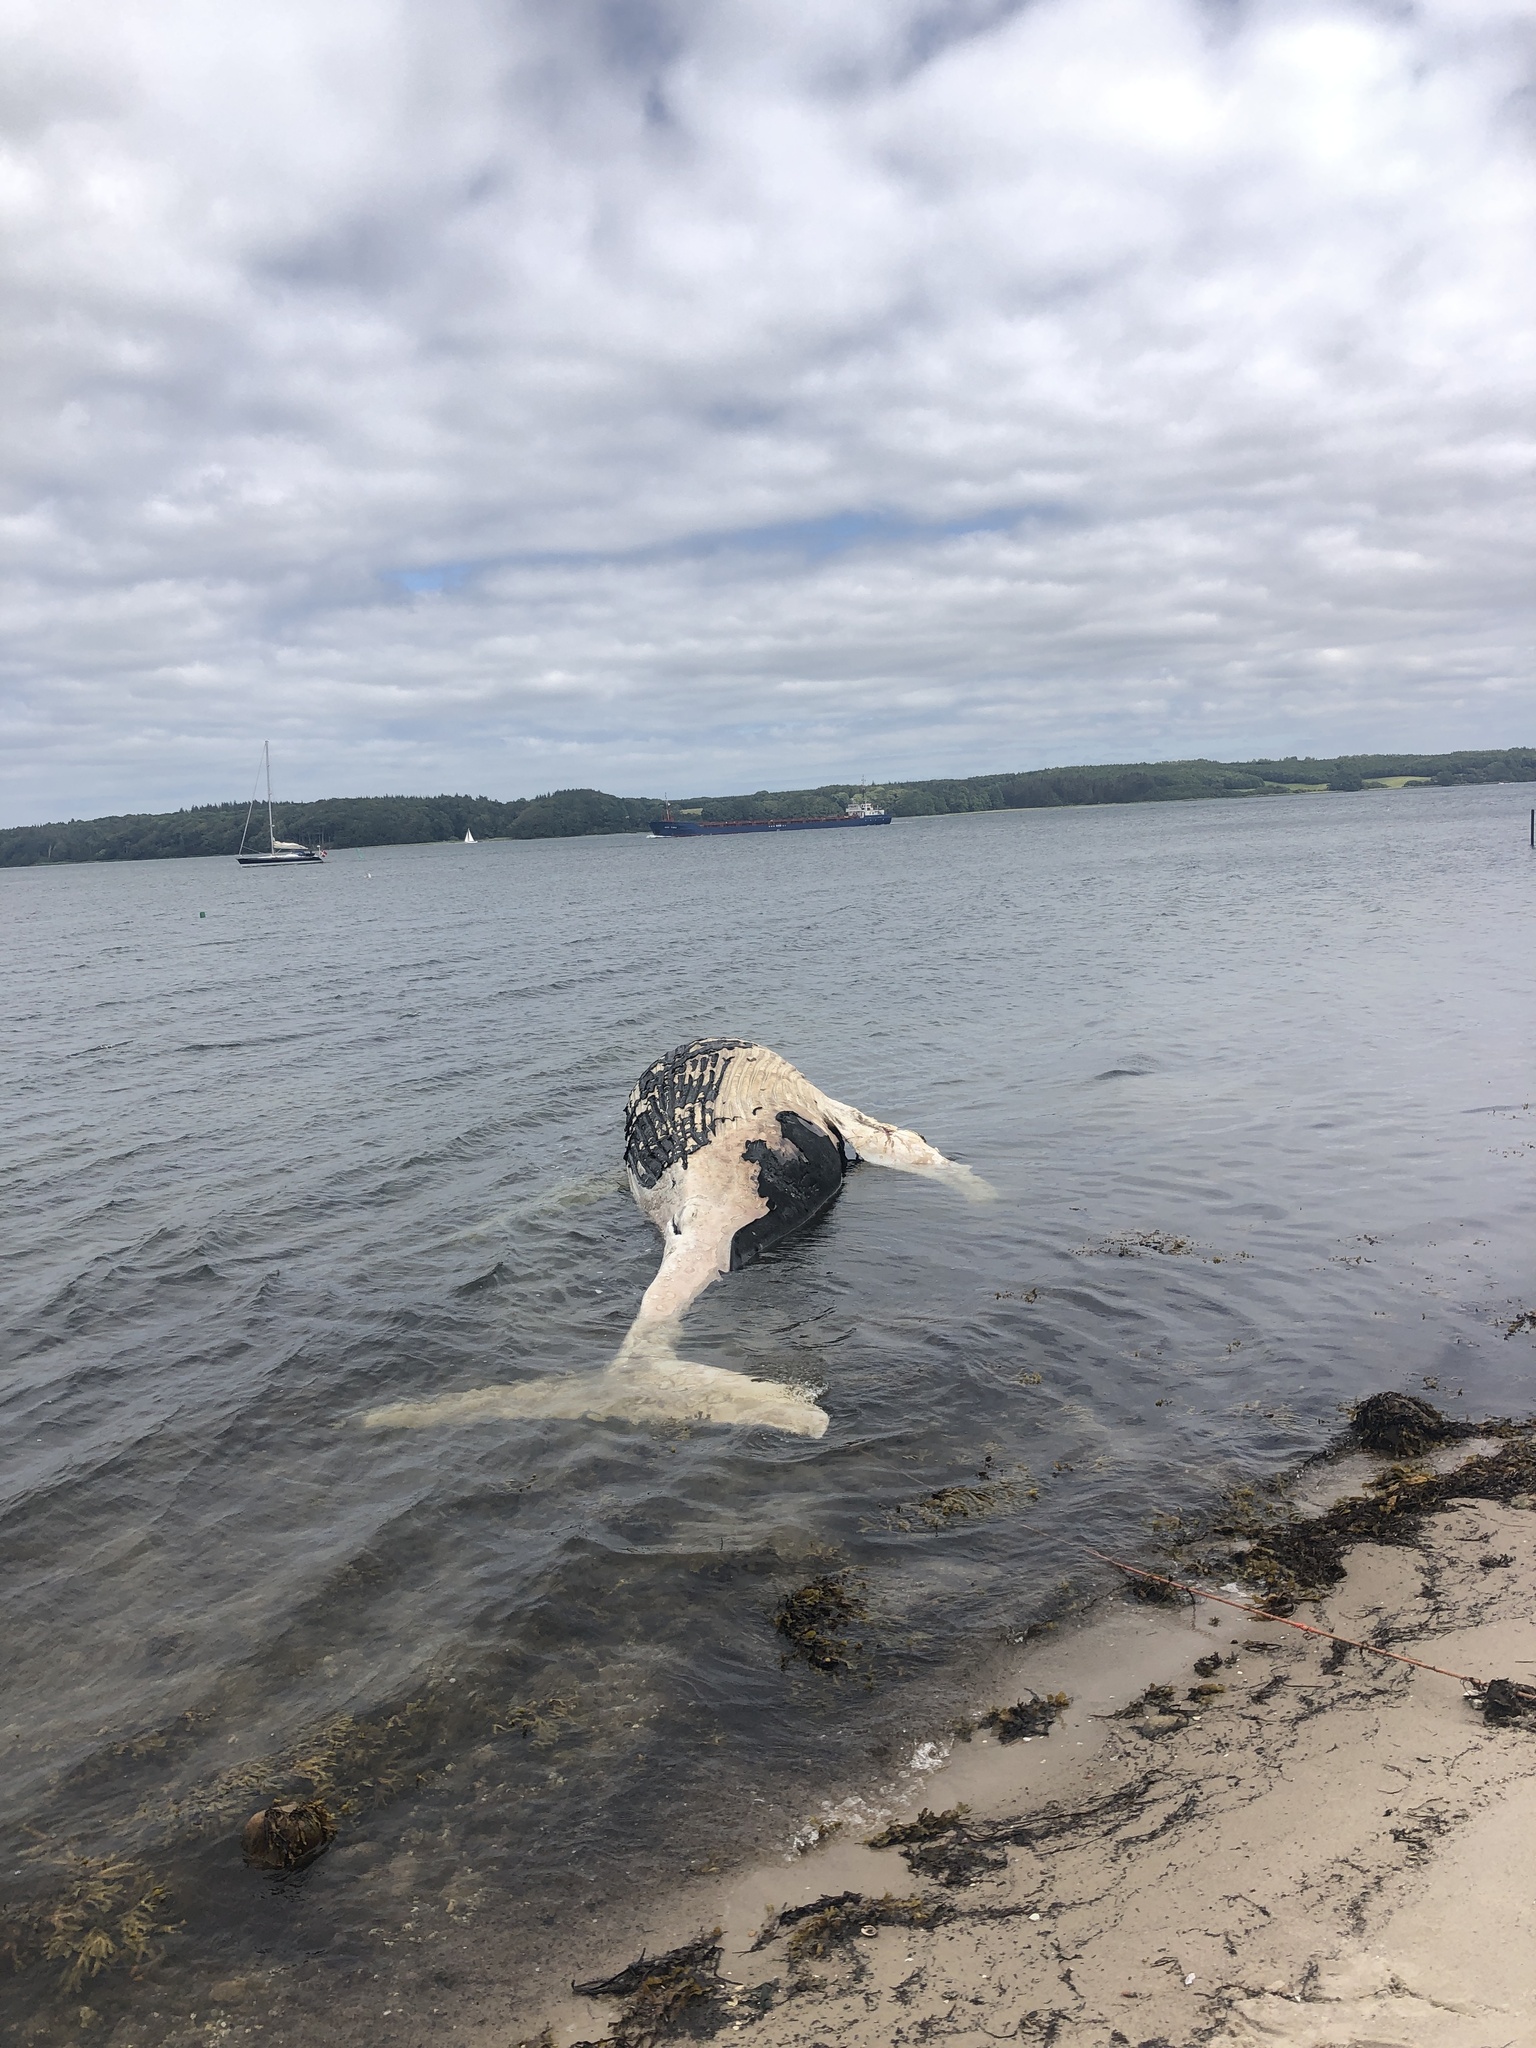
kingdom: Animalia
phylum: Chordata
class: Mammalia
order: Cetacea
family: Balaenopteridae
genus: Megaptera
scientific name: Megaptera novaeangliae
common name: Humpback whale
